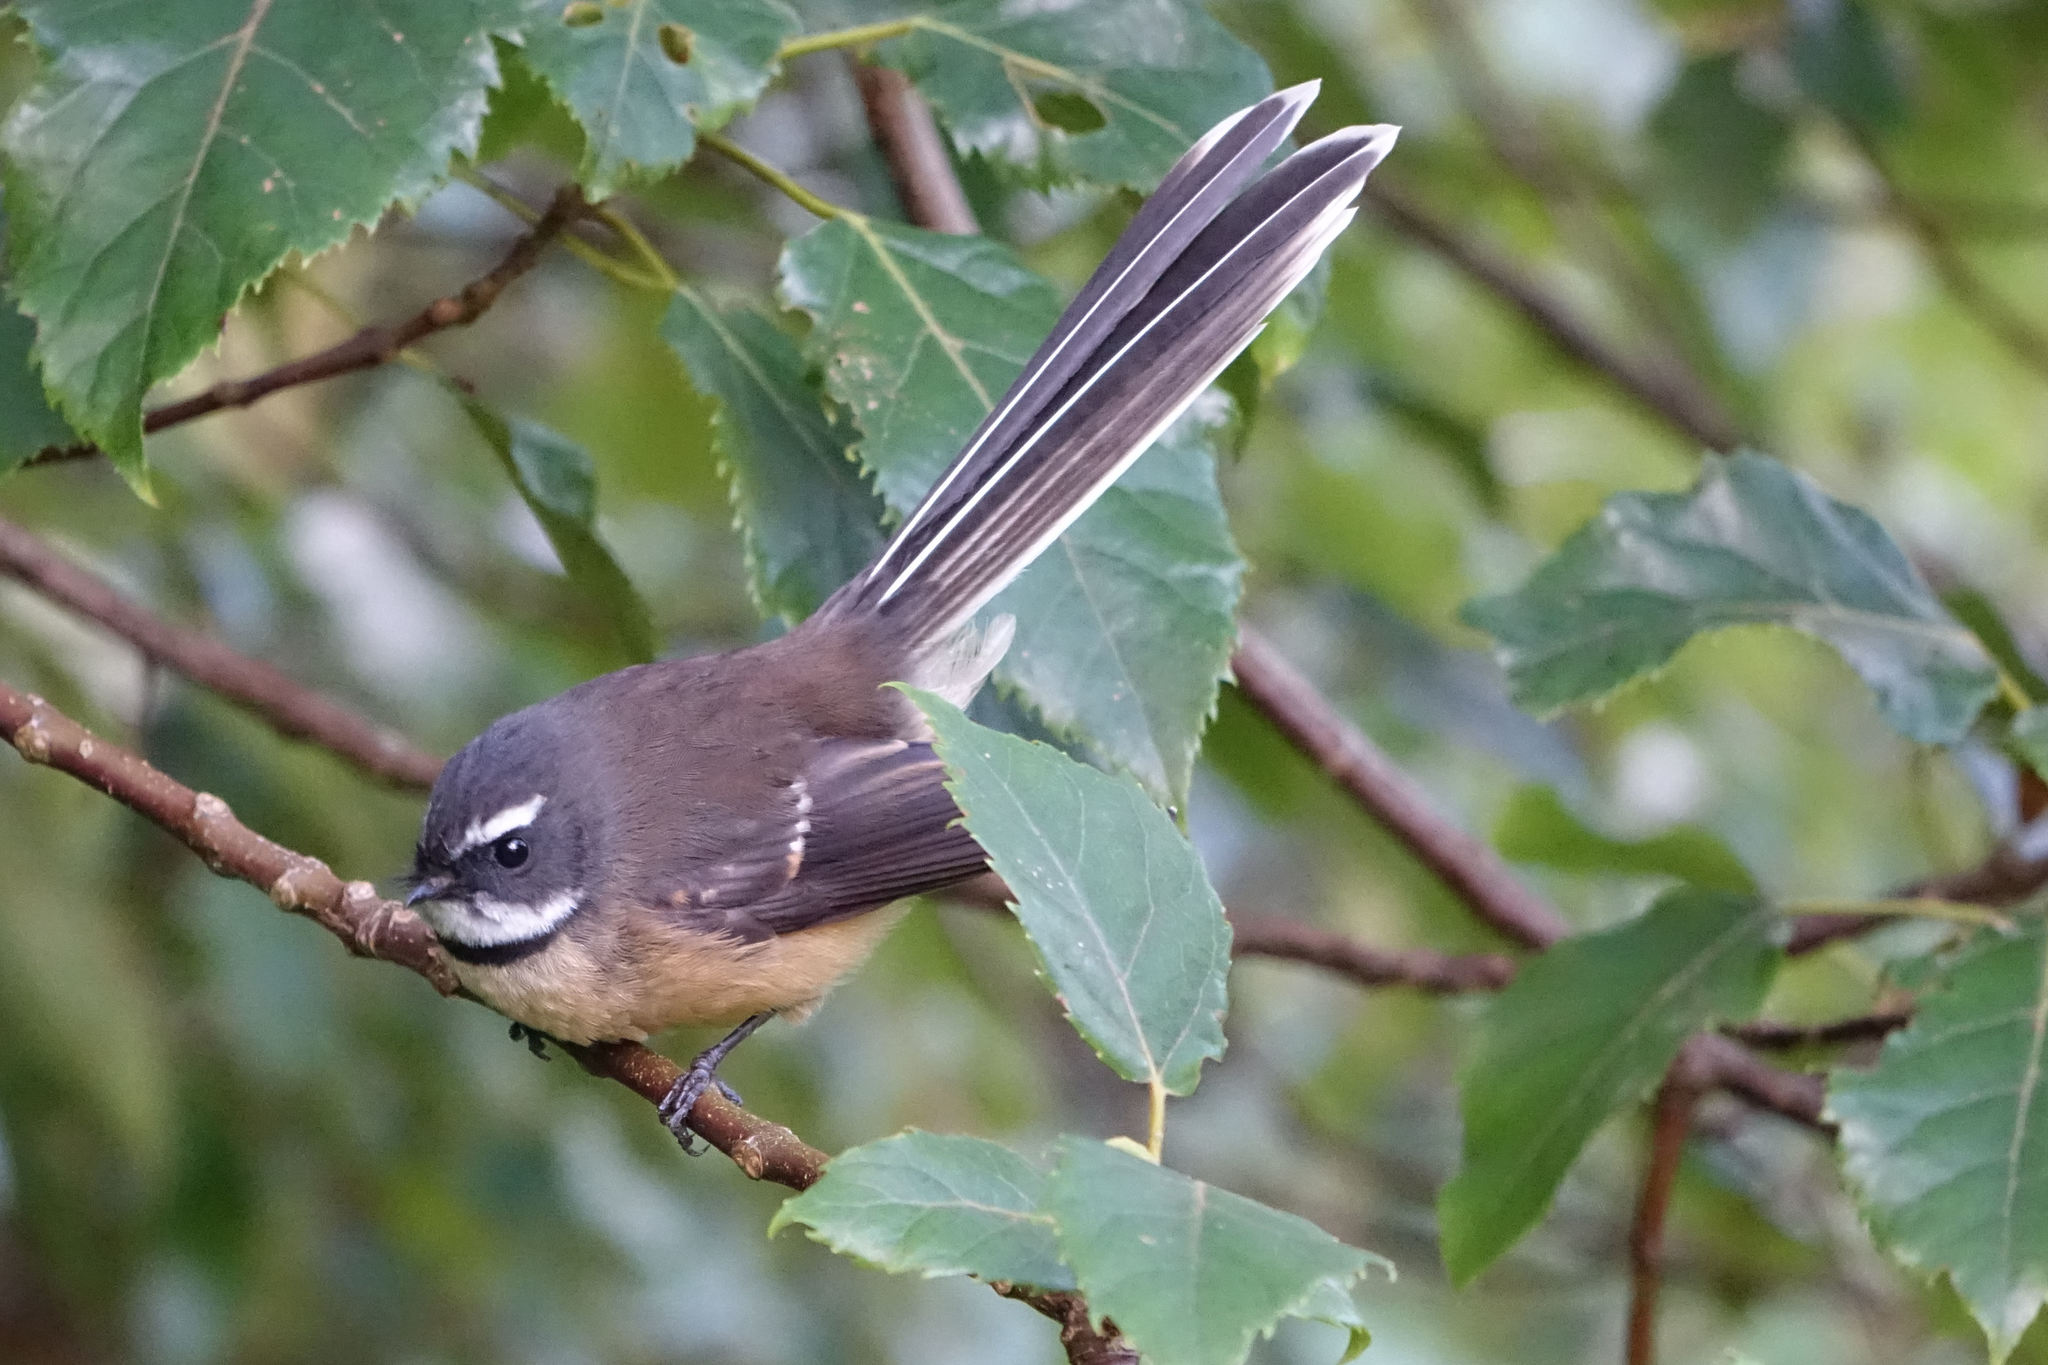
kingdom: Animalia
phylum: Chordata
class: Aves
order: Passeriformes
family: Rhipiduridae
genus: Rhipidura
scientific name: Rhipidura fuliginosa
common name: New zealand fantail
